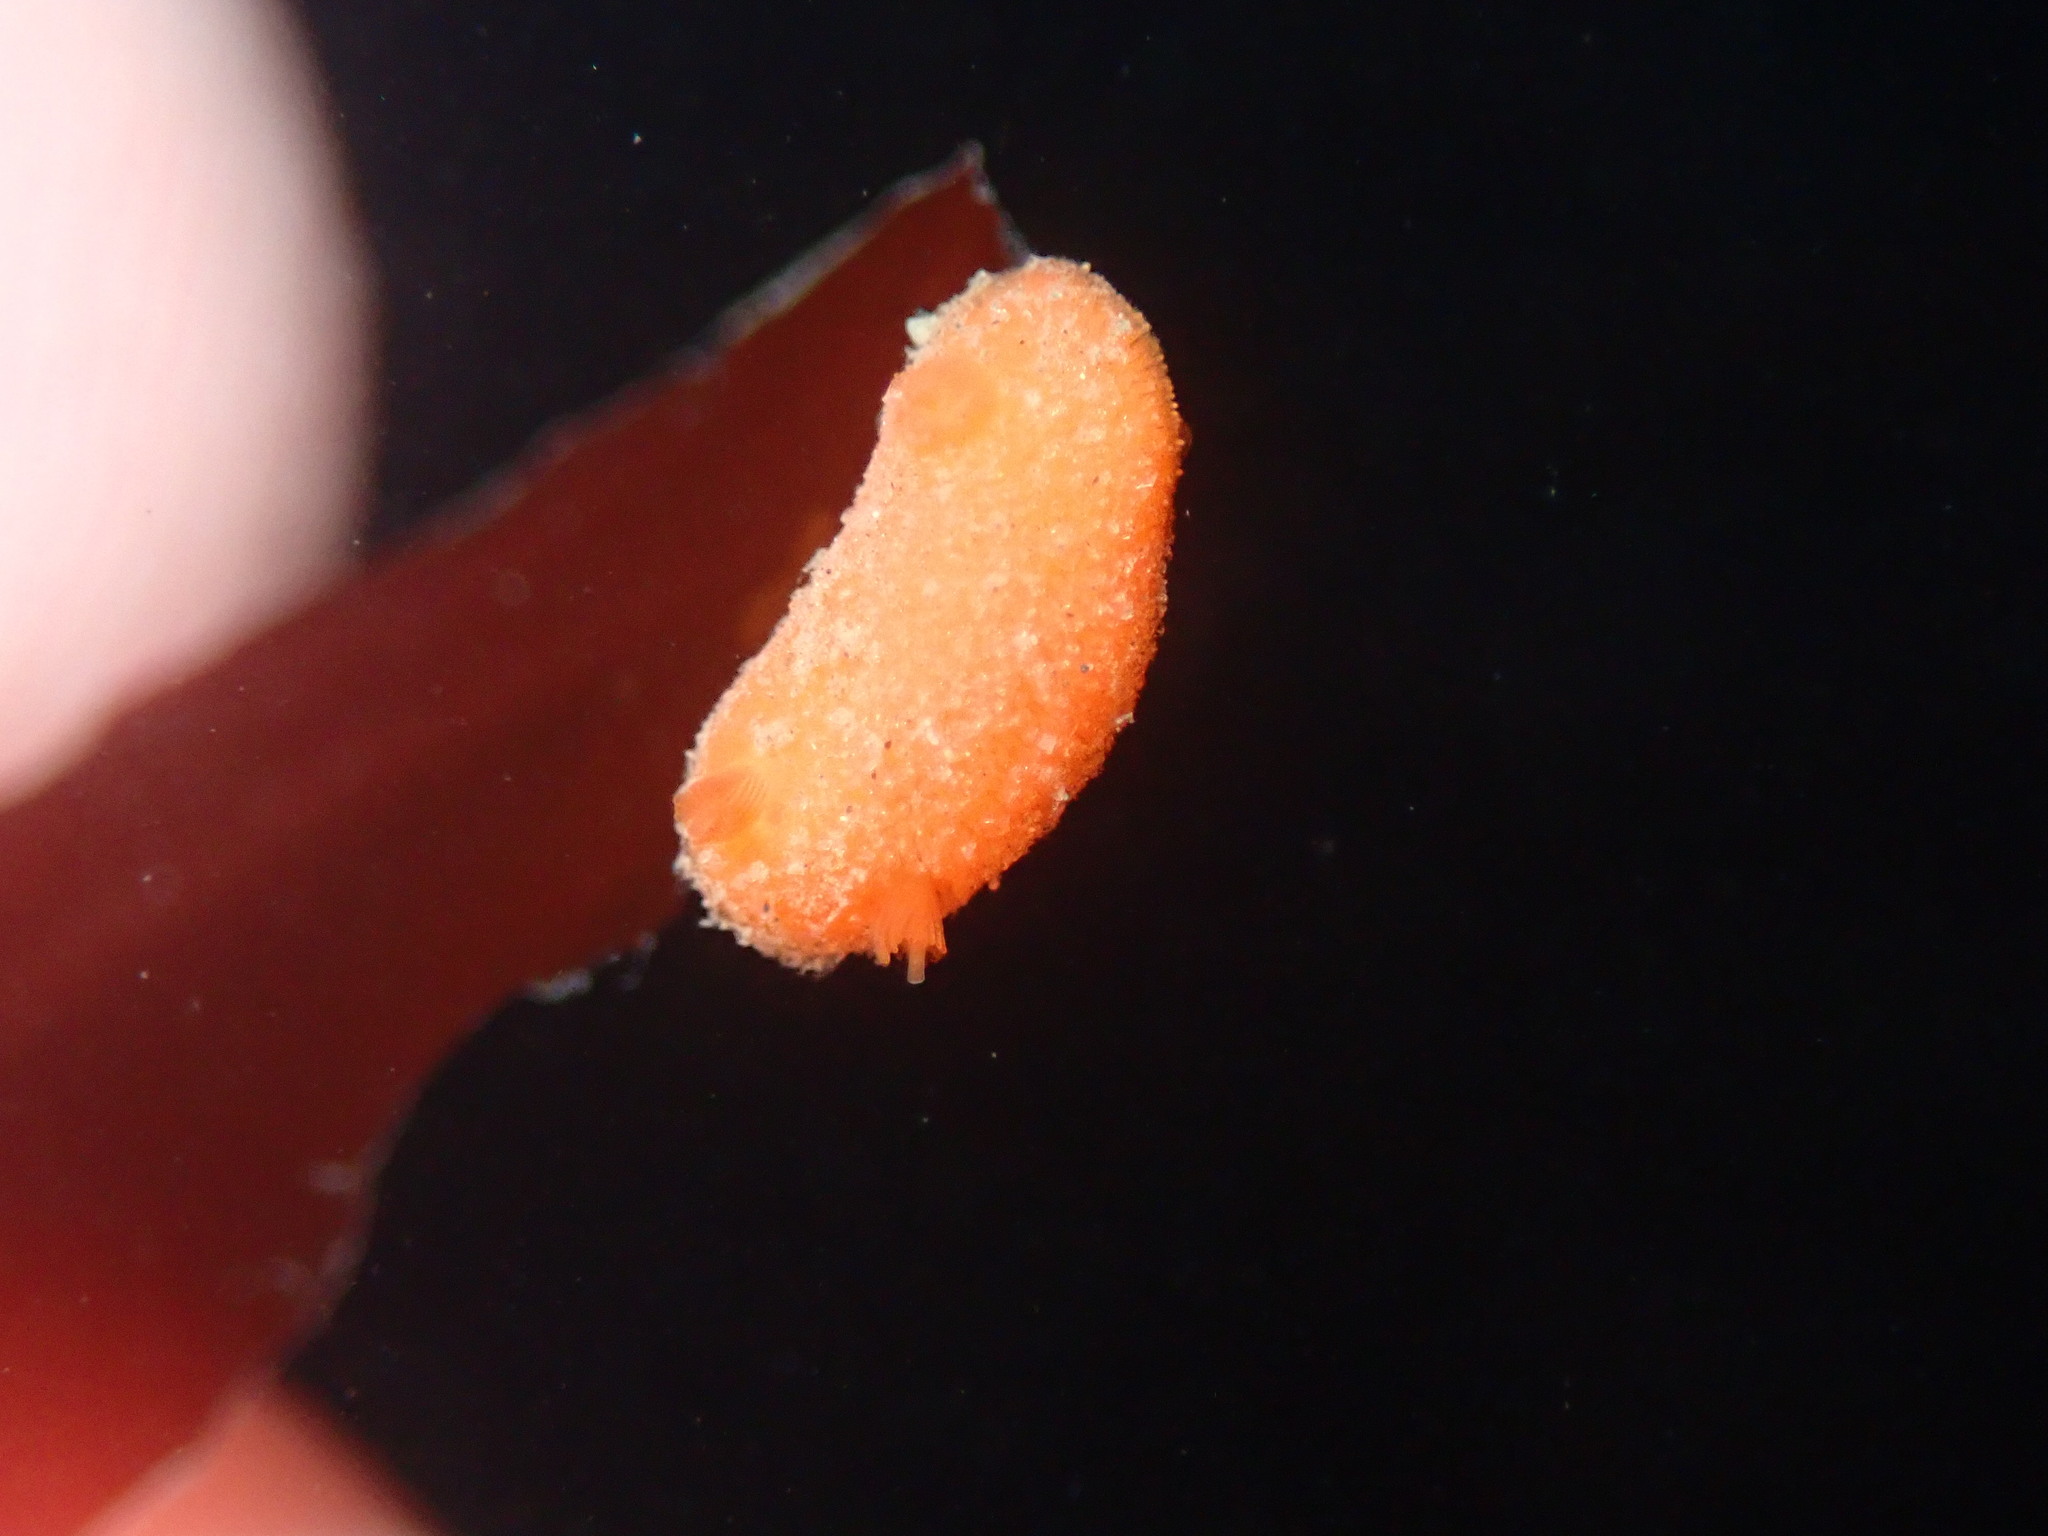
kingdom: Animalia
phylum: Mollusca
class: Gastropoda
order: Nudibranchia
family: Discodorididae
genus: Rostanga
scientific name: Rostanga pulchra
